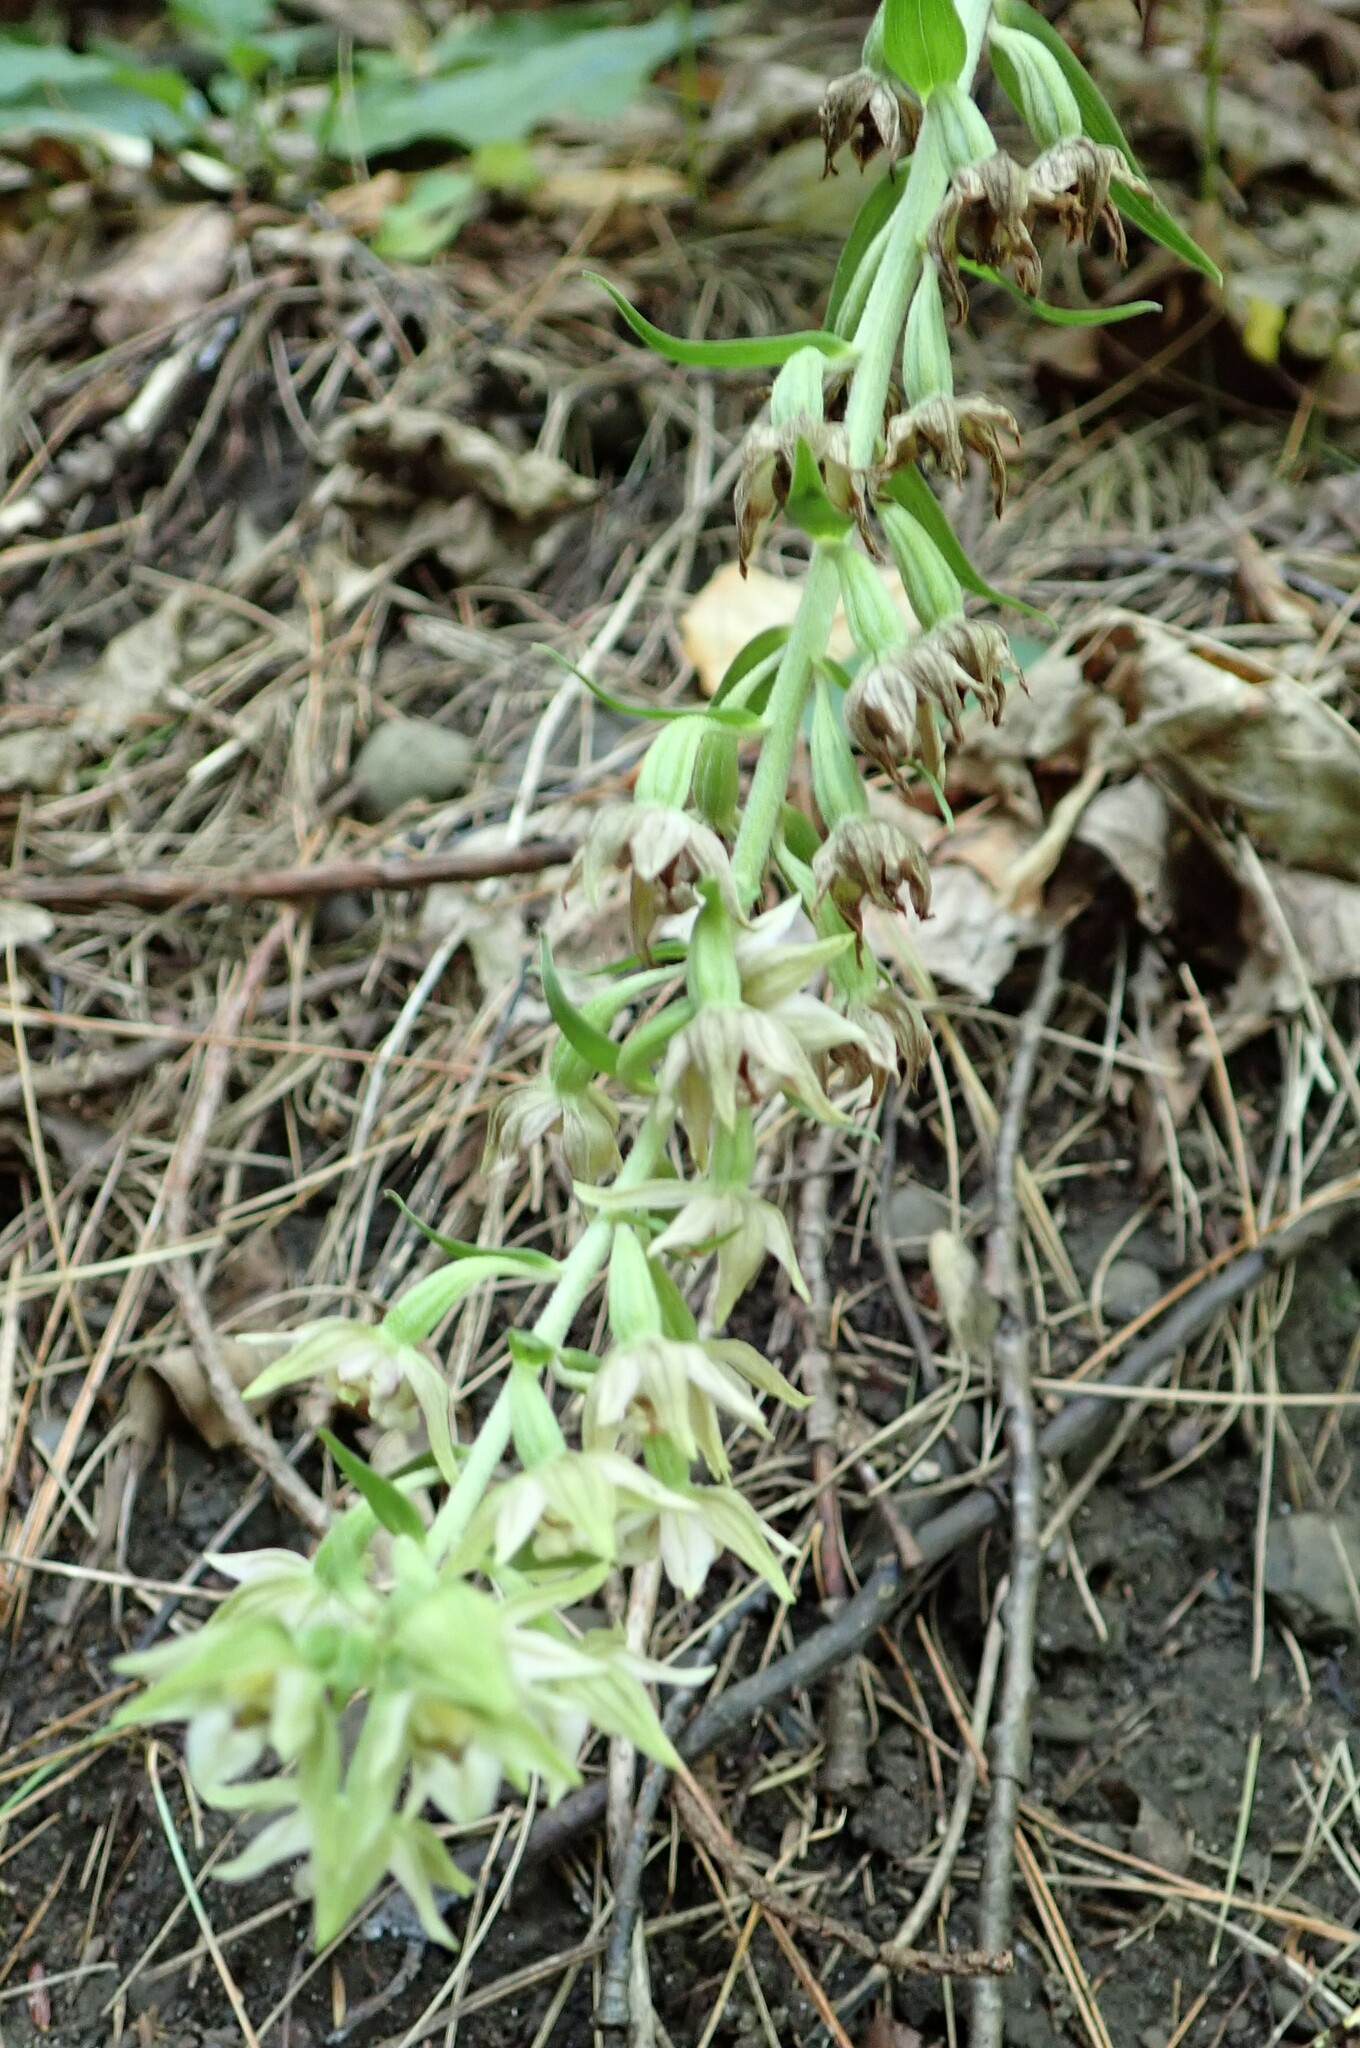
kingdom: Plantae
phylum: Tracheophyta
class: Liliopsida
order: Asparagales
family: Orchidaceae
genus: Epipactis
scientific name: Epipactis helleborine
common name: Broad-leaved helleborine
